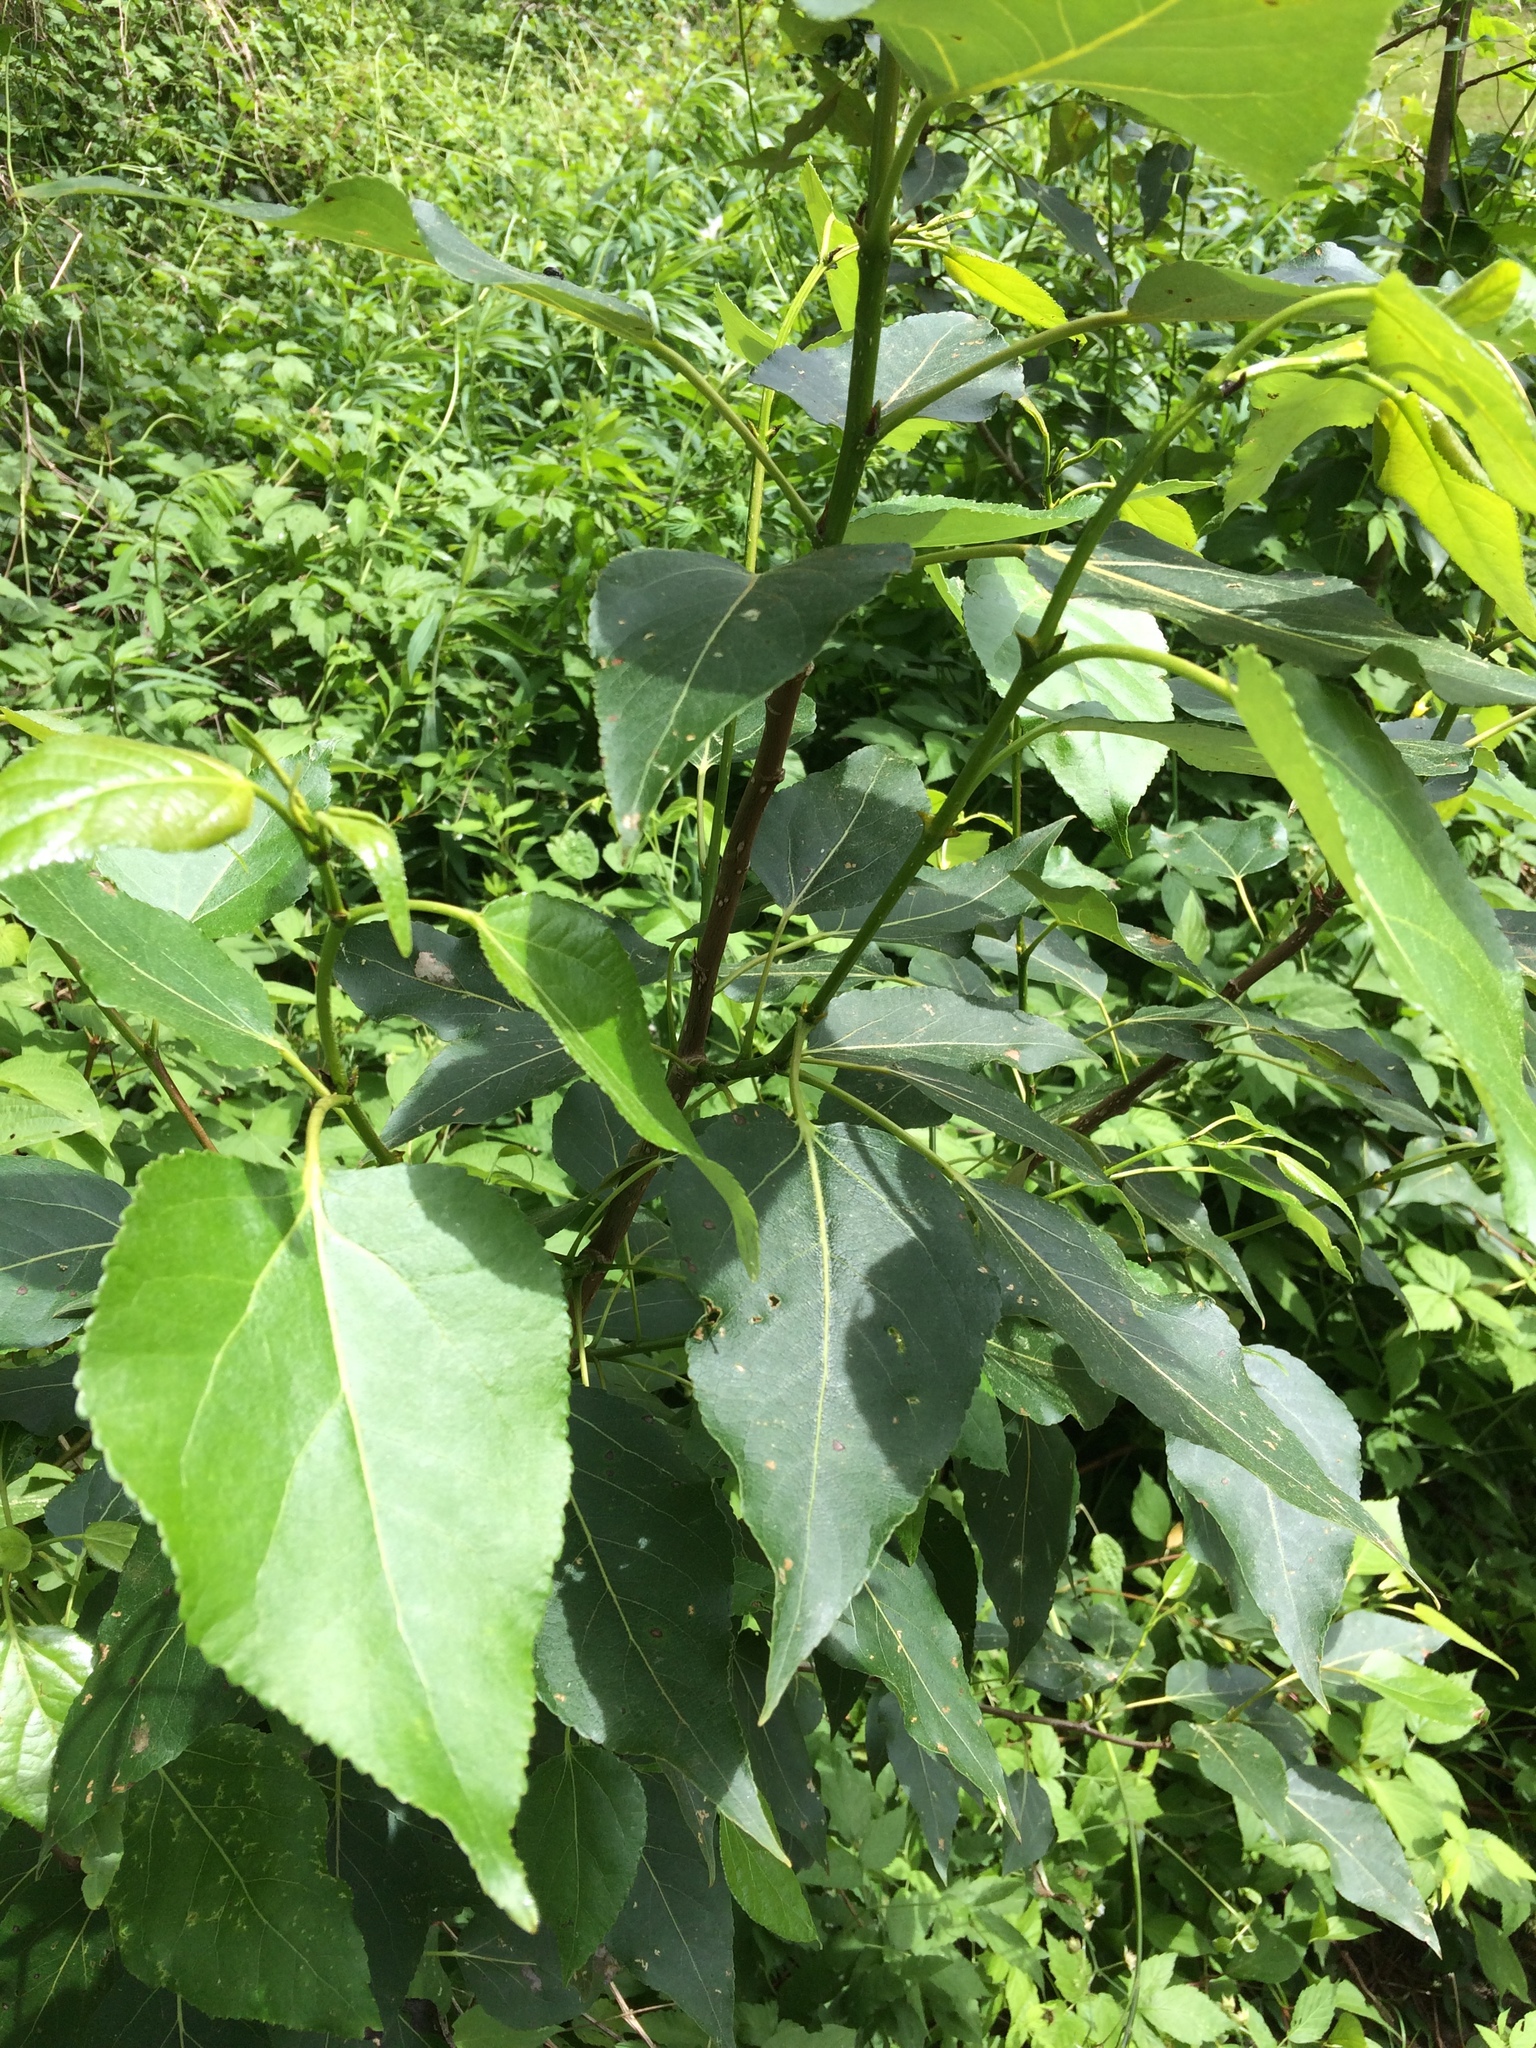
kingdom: Plantae
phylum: Tracheophyta
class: Magnoliopsida
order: Malpighiales
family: Salicaceae
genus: Populus
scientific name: Populus balsamifera
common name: Balsam poplar
